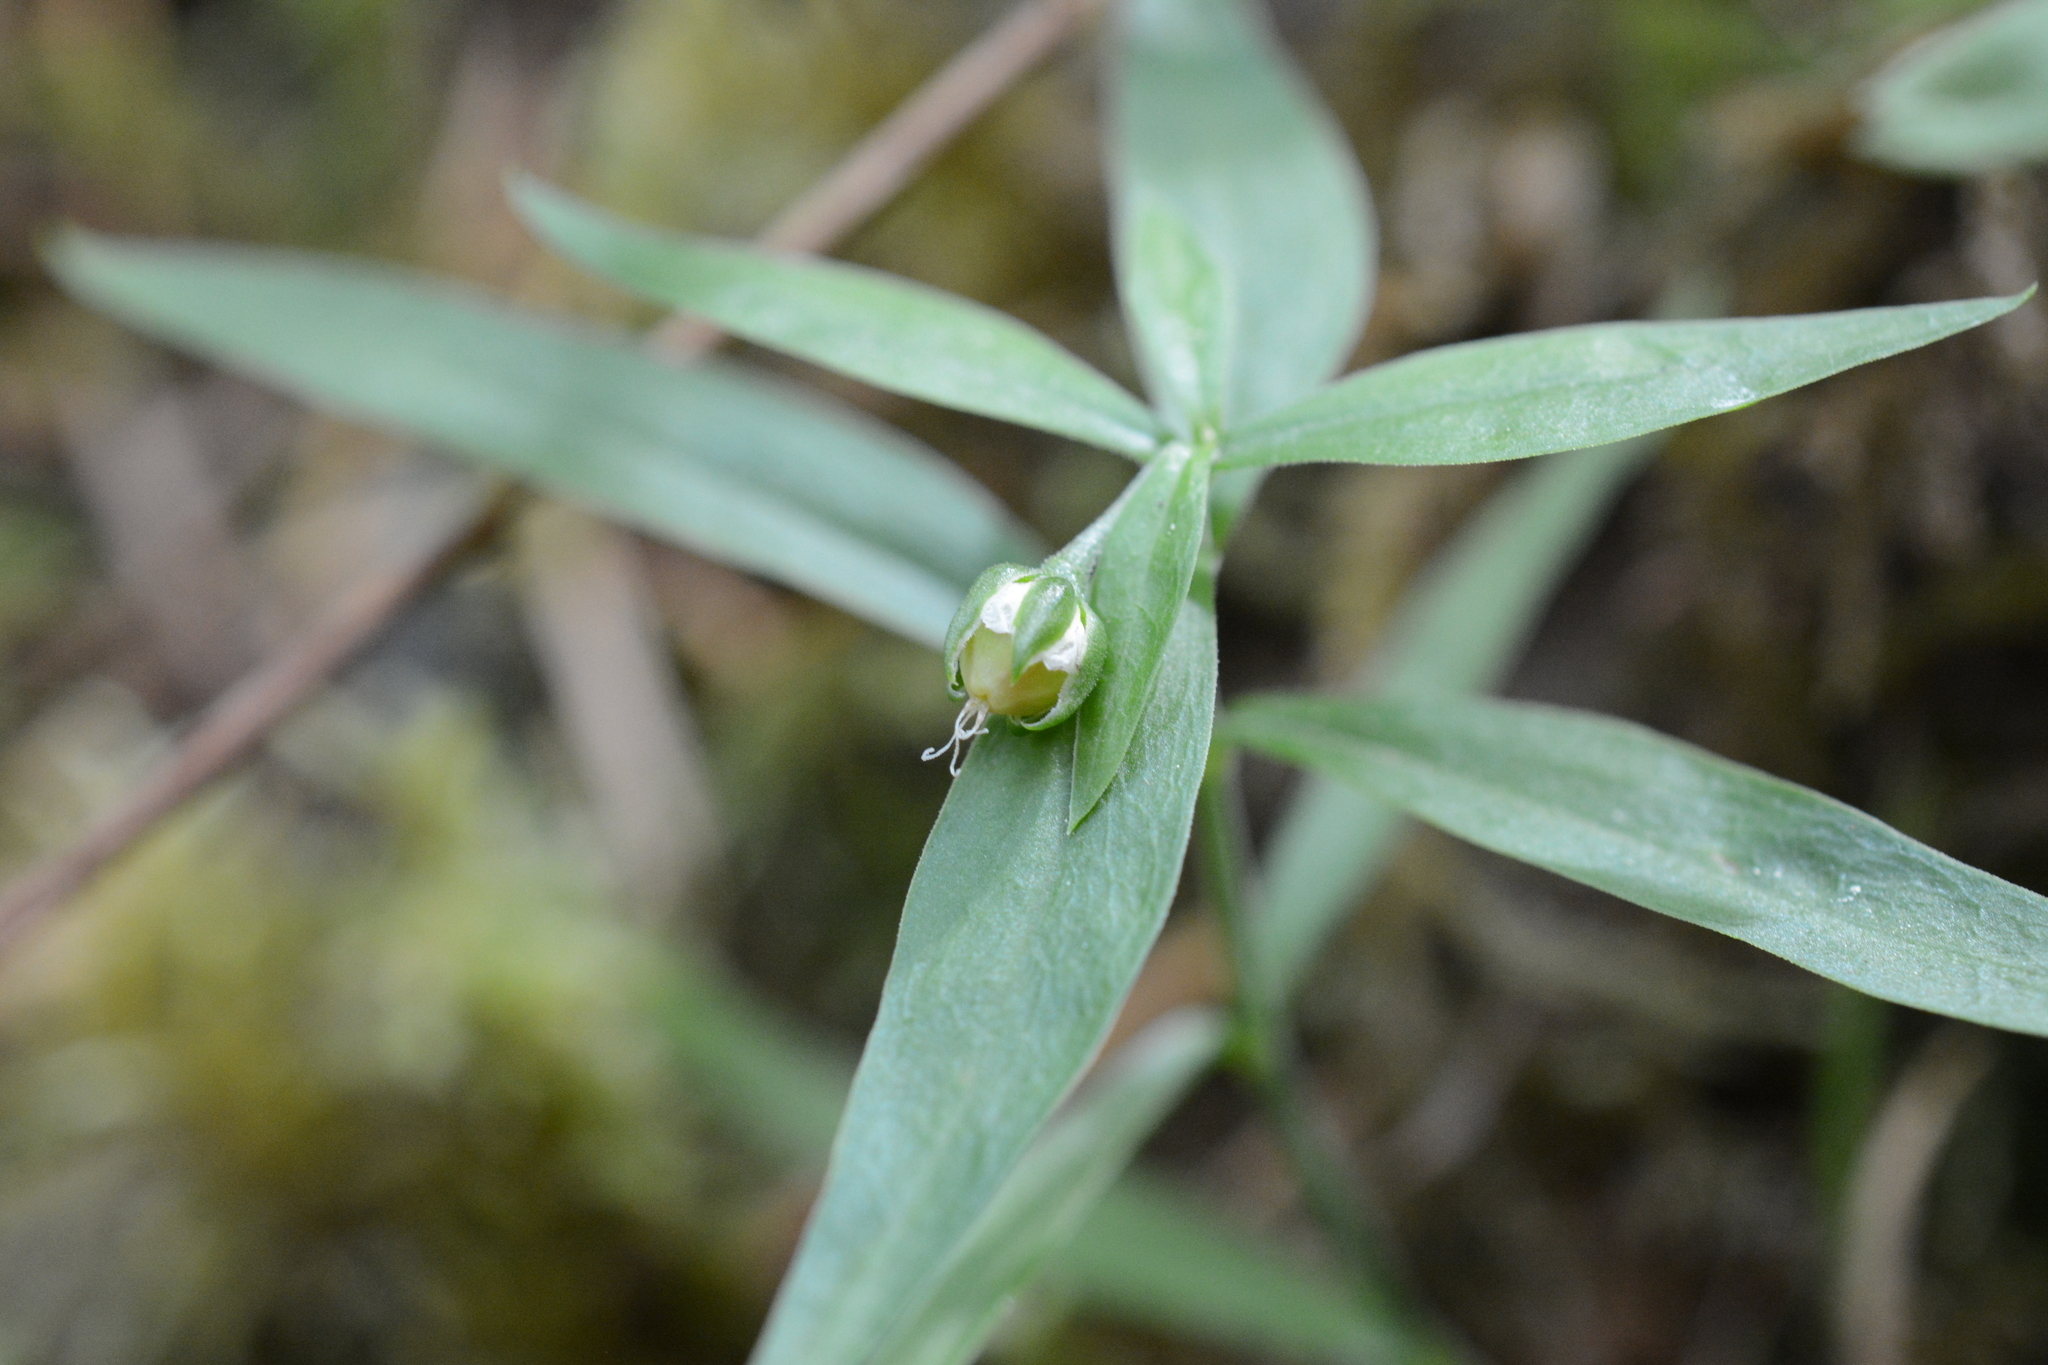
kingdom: Plantae
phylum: Tracheophyta
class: Magnoliopsida
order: Caryophyllales
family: Caryophyllaceae
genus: Moehringia
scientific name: Moehringia macrophylla
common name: Big-leaf sandwort
